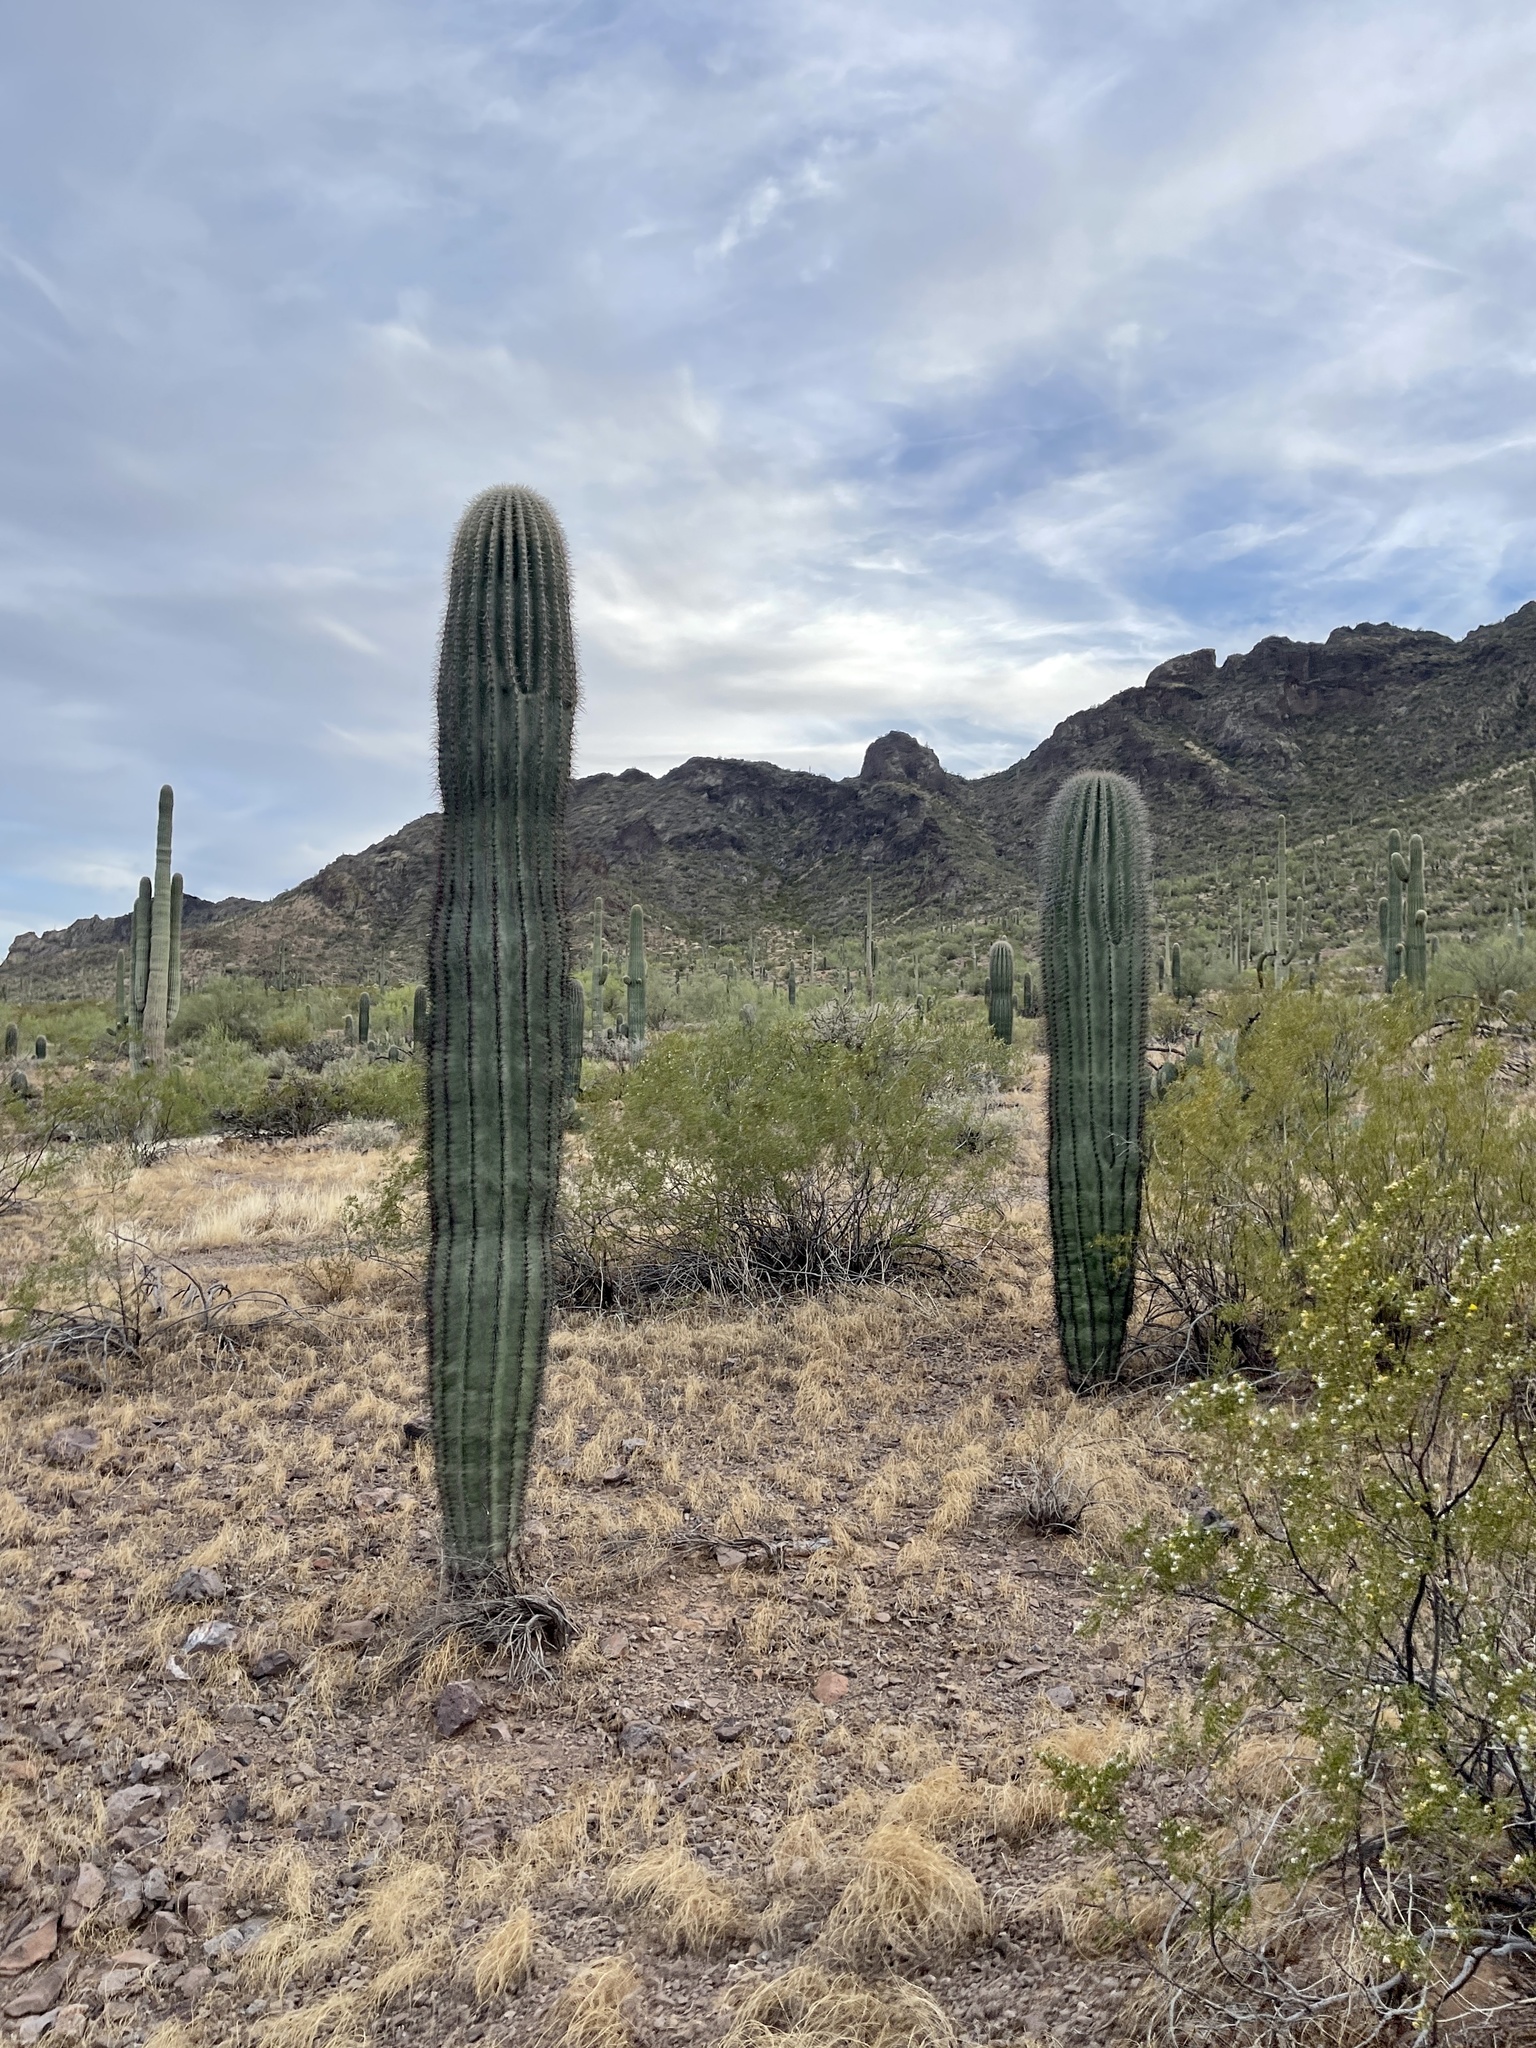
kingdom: Plantae
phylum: Tracheophyta
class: Magnoliopsida
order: Caryophyllales
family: Cactaceae
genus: Carnegiea
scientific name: Carnegiea gigantea
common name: Saguaro
